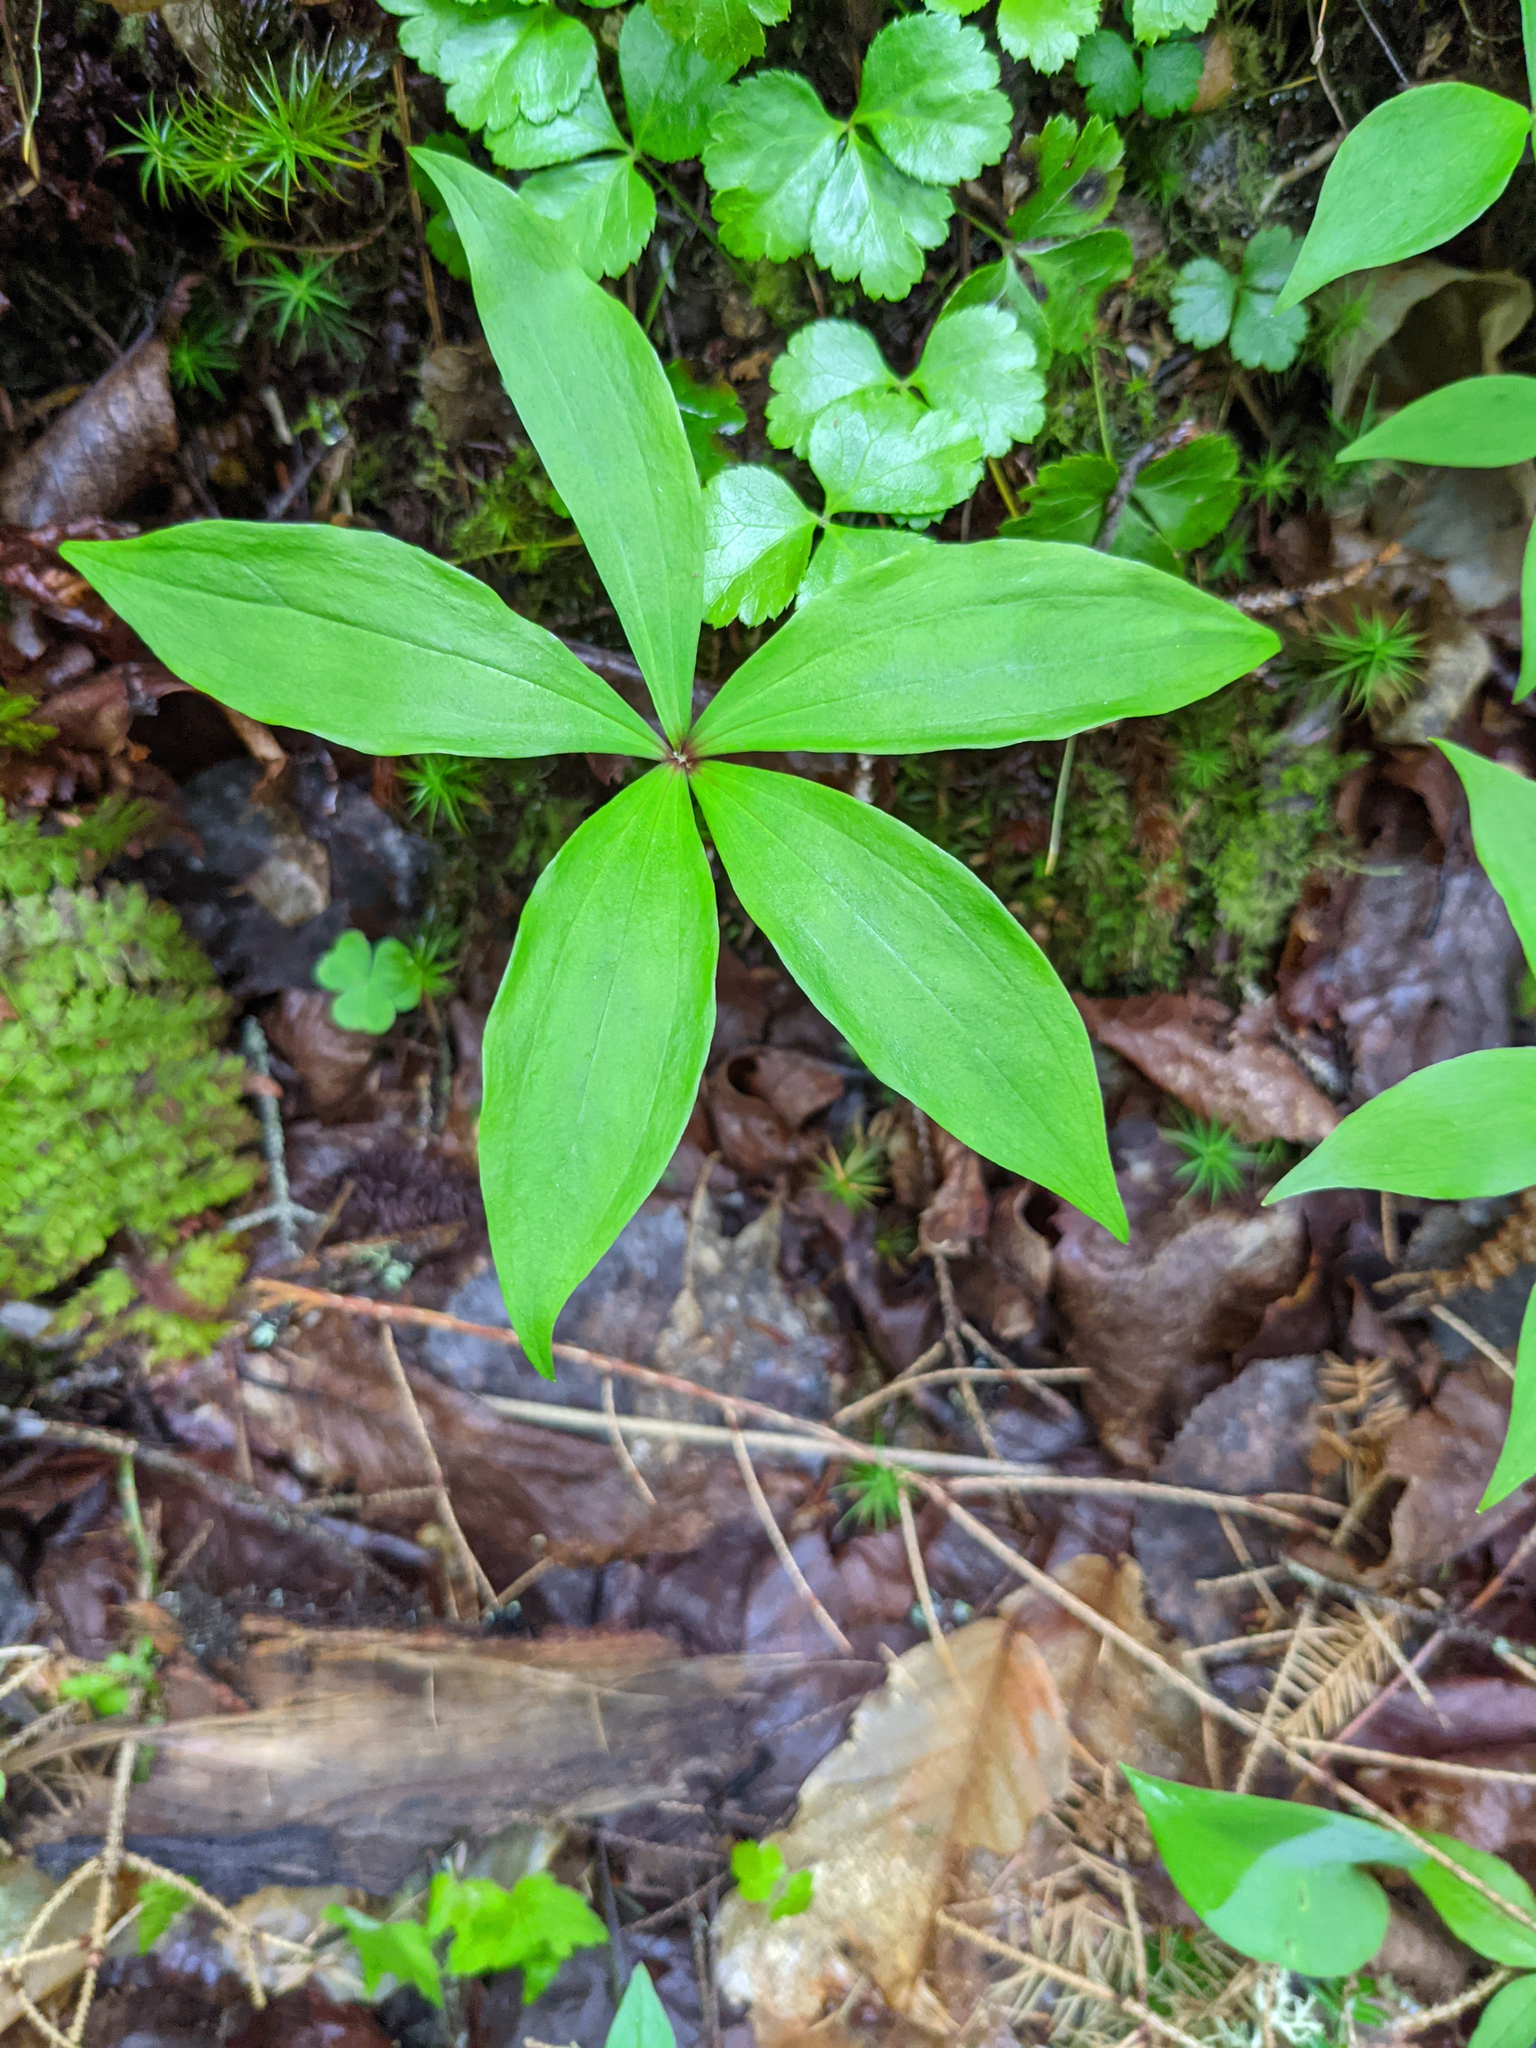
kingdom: Plantae
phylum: Tracheophyta
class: Liliopsida
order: Liliales
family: Liliaceae
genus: Medeola
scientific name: Medeola virginiana
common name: Indian cucumber-root
